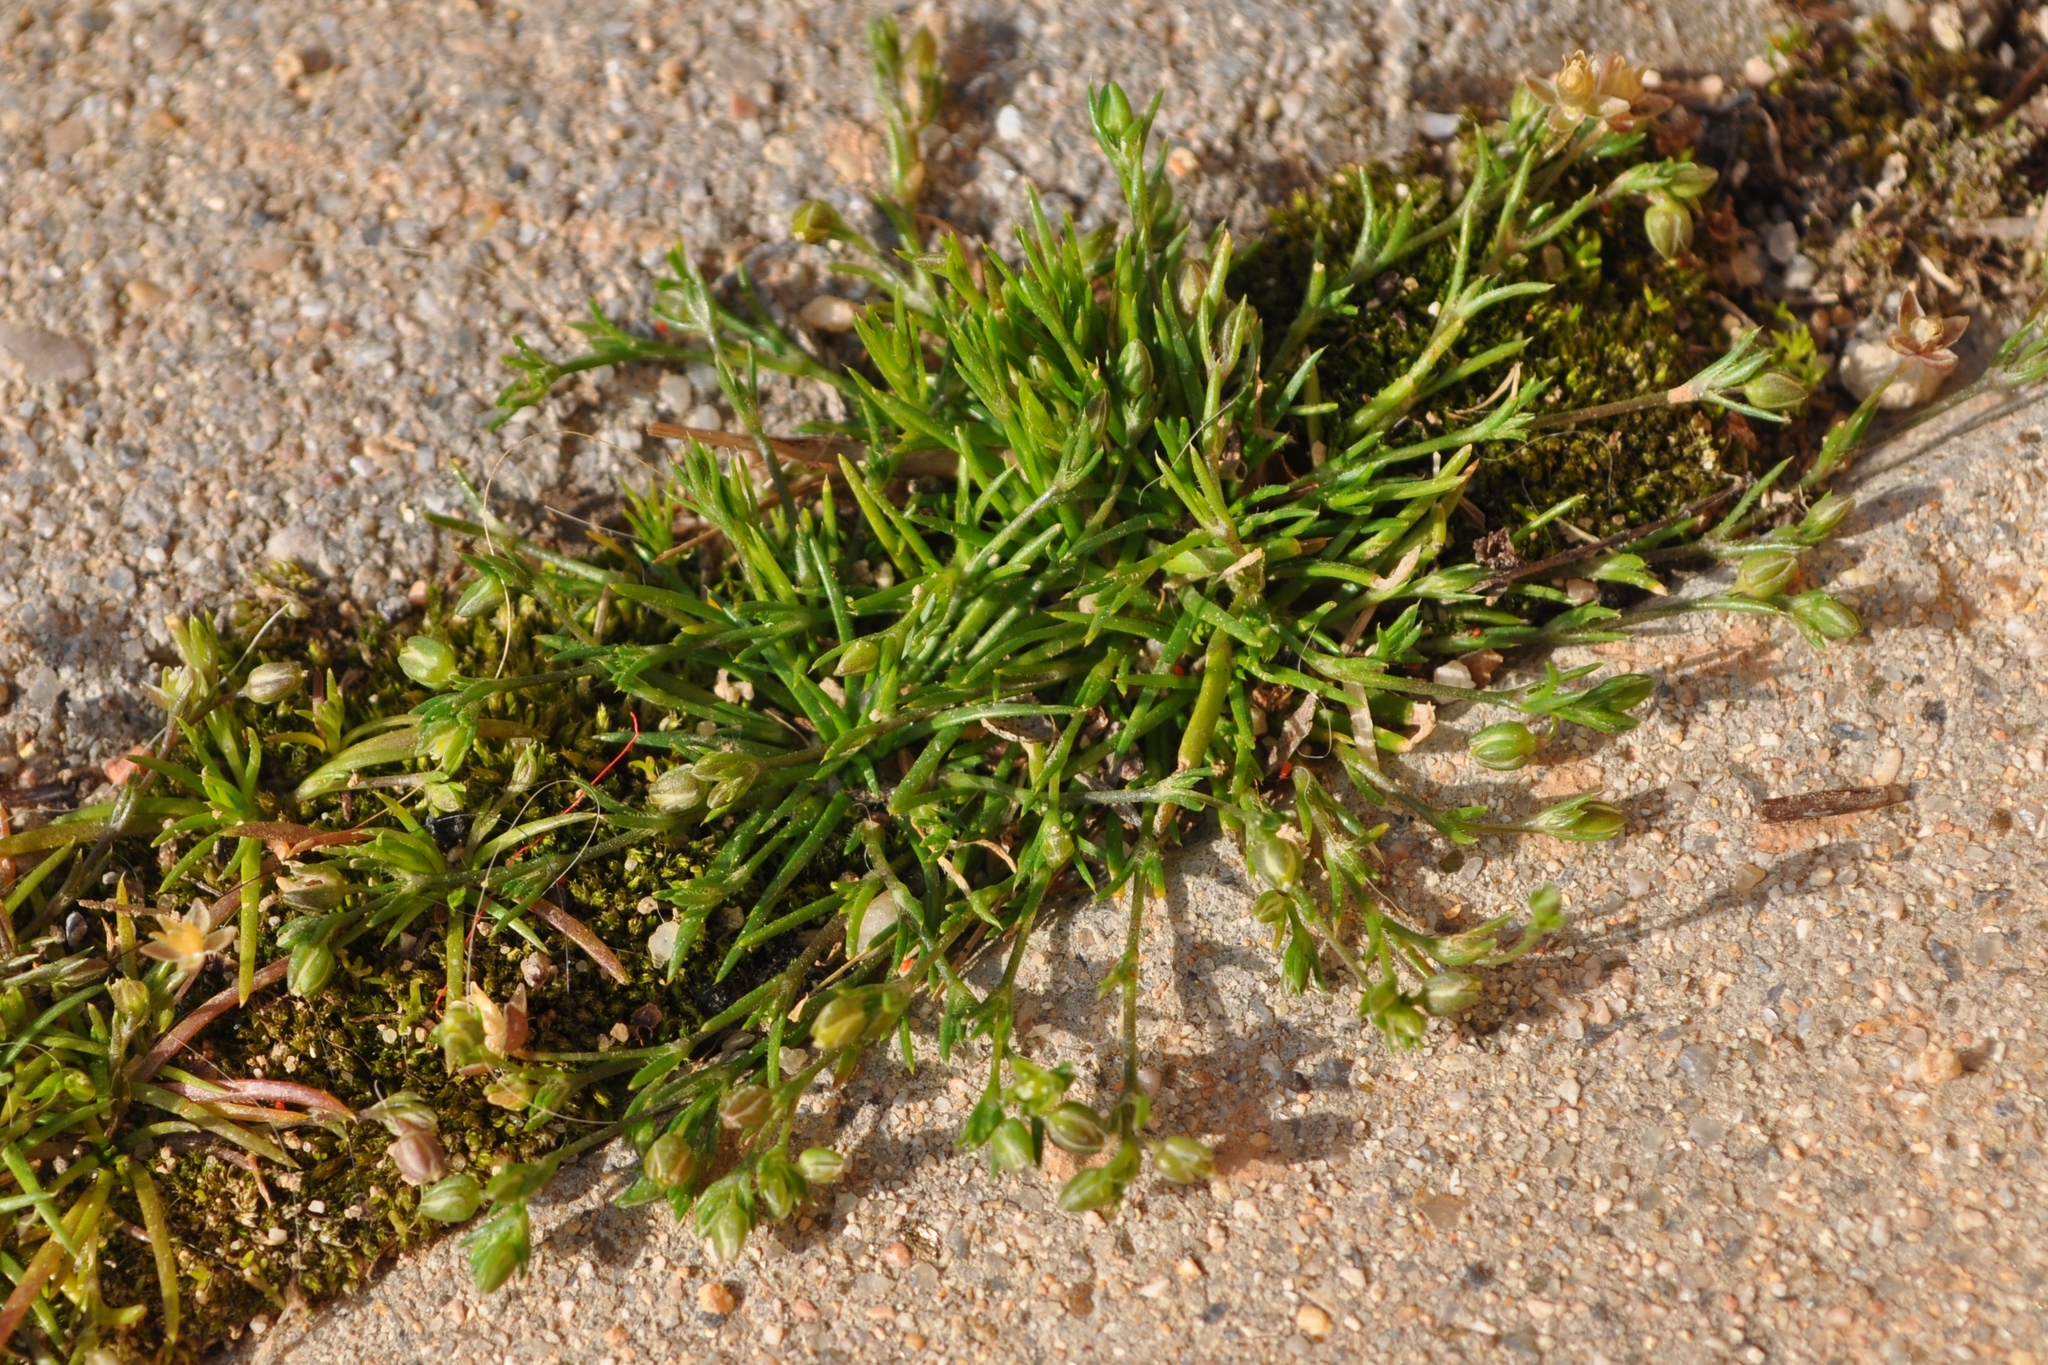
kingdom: Plantae
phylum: Tracheophyta
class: Magnoliopsida
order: Caryophyllales
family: Caryophyllaceae
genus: Sagina
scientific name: Sagina apetala
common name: Annual pearlwort
